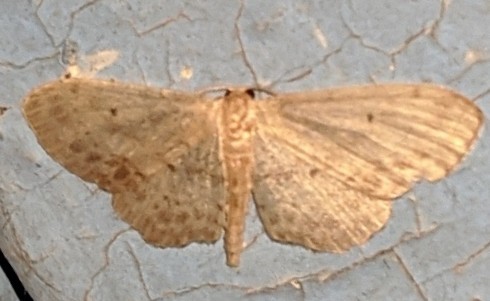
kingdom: Animalia
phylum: Arthropoda
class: Insecta
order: Lepidoptera
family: Geometridae
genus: Idaea
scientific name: Idaea dimidiata
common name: Single-dotted wave
